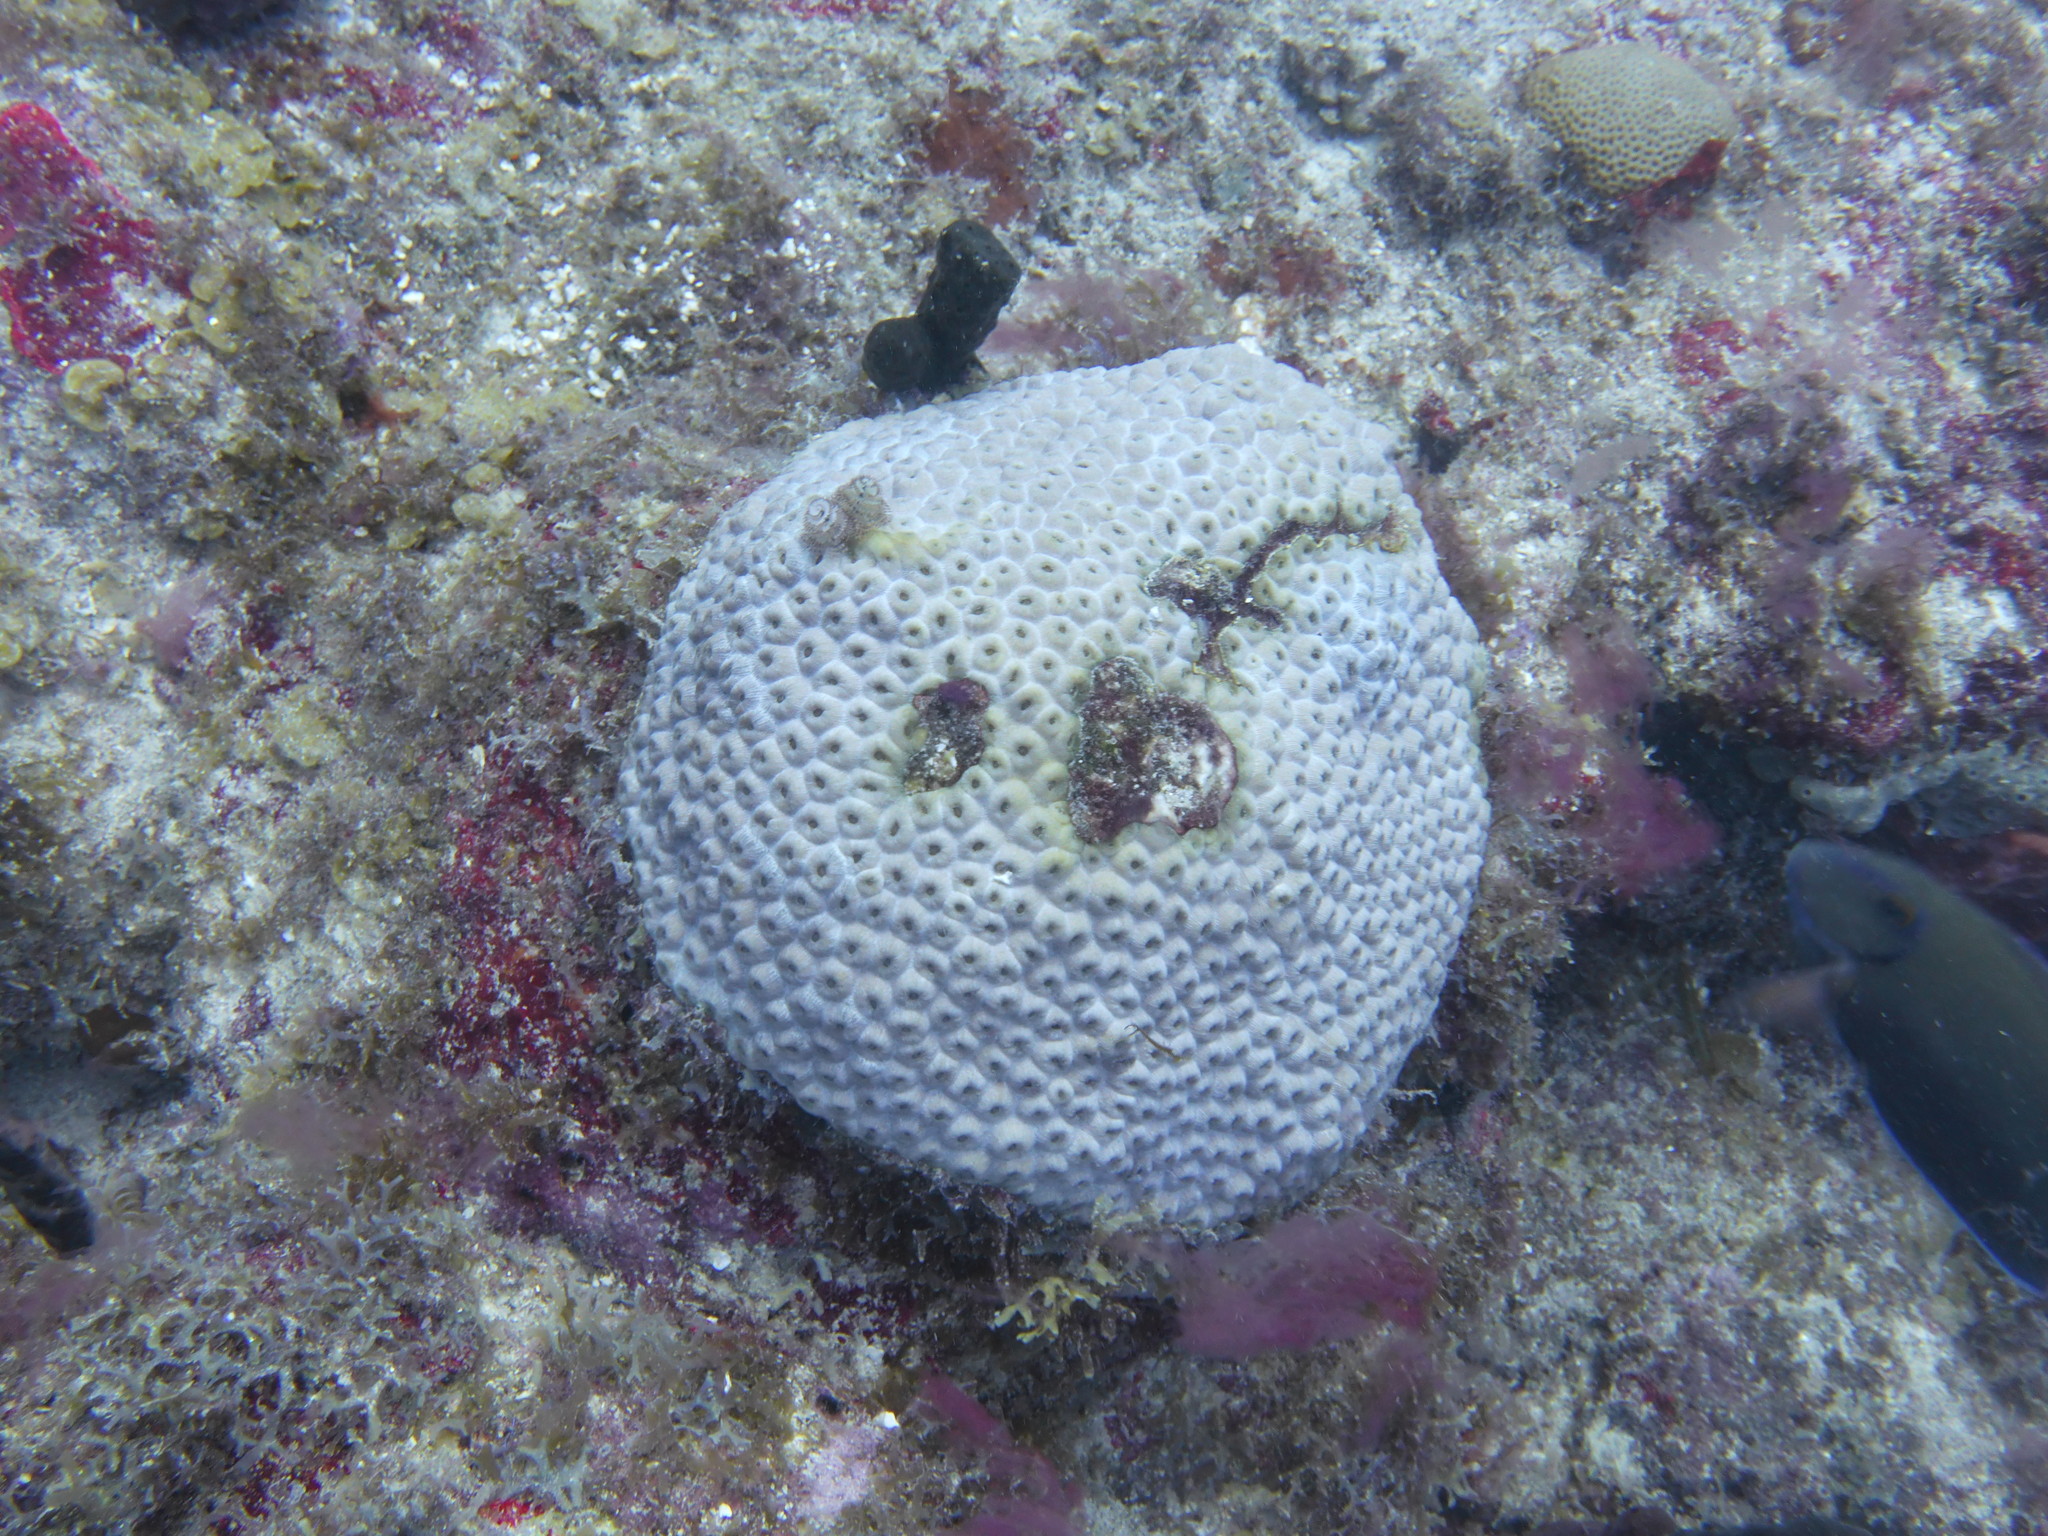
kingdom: Animalia
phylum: Cnidaria
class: Anthozoa
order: Scleractinia
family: Montastraeidae
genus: Montastraea
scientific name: Montastraea cavernosa
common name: Great star coral
